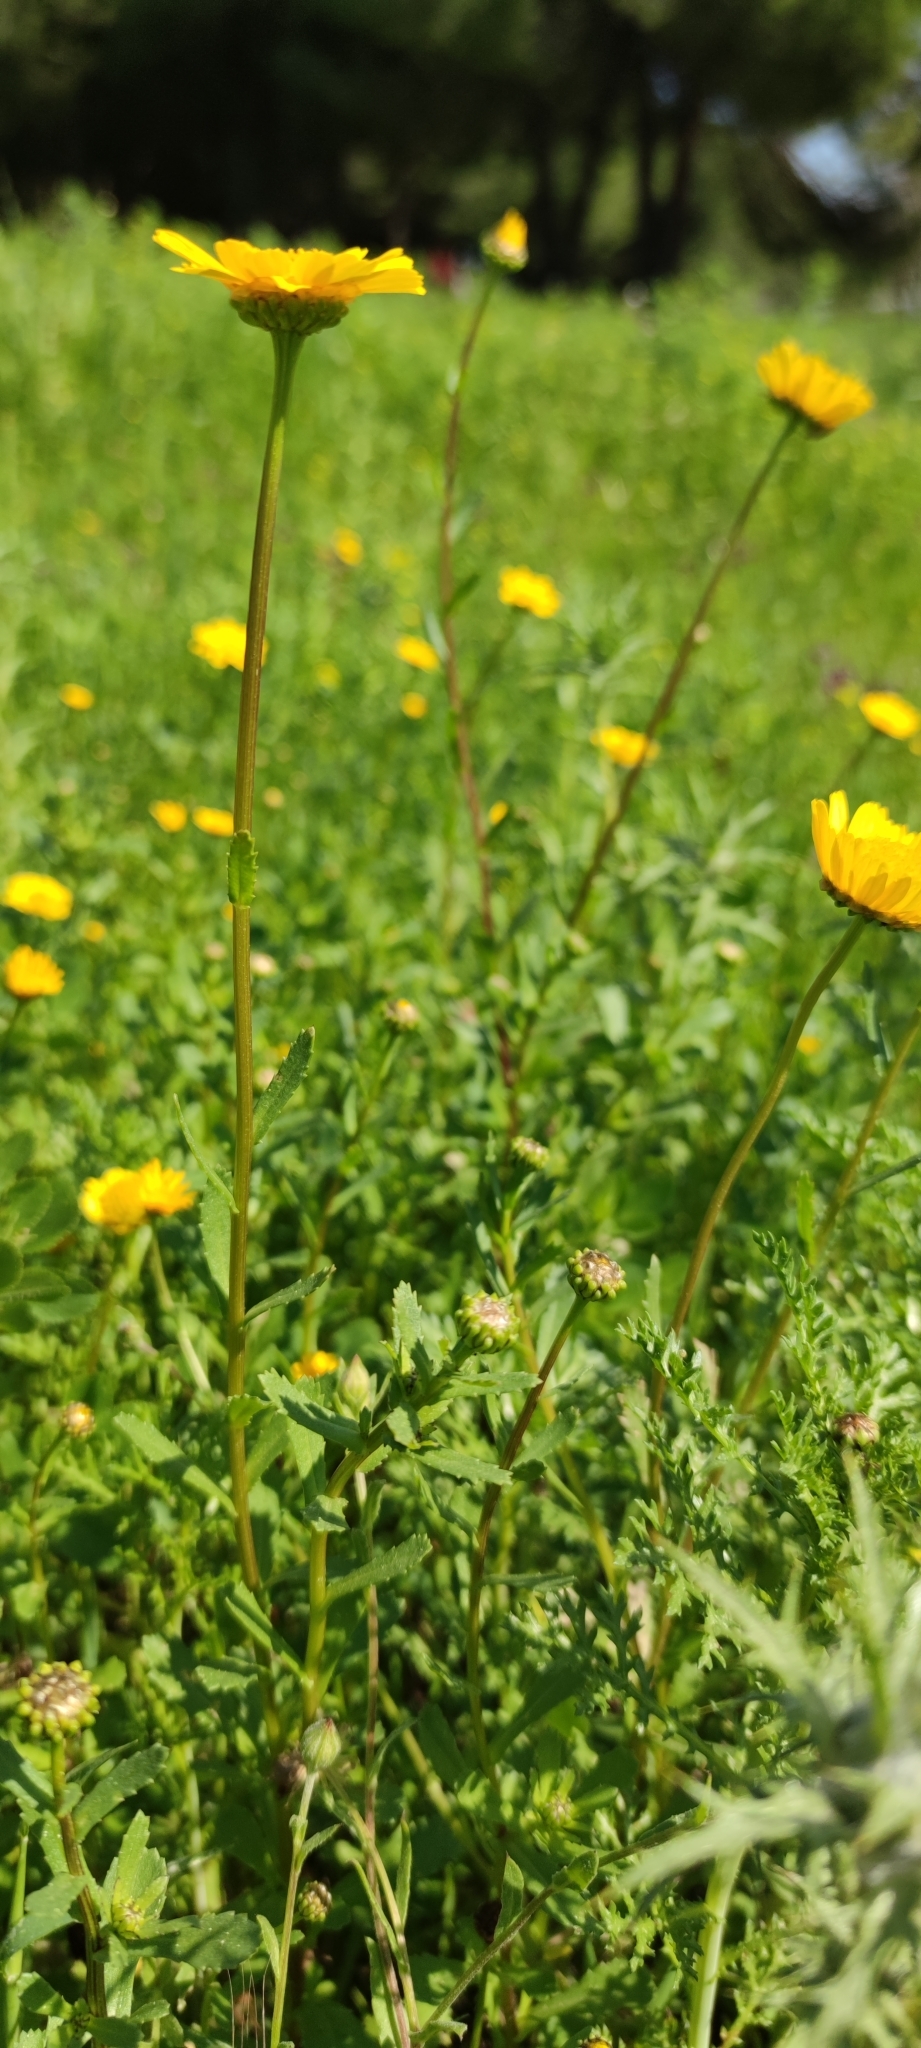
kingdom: Plantae
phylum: Tracheophyta
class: Magnoliopsida
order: Asterales
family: Asteraceae
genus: Glossopappus
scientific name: Glossopappus macrotus
